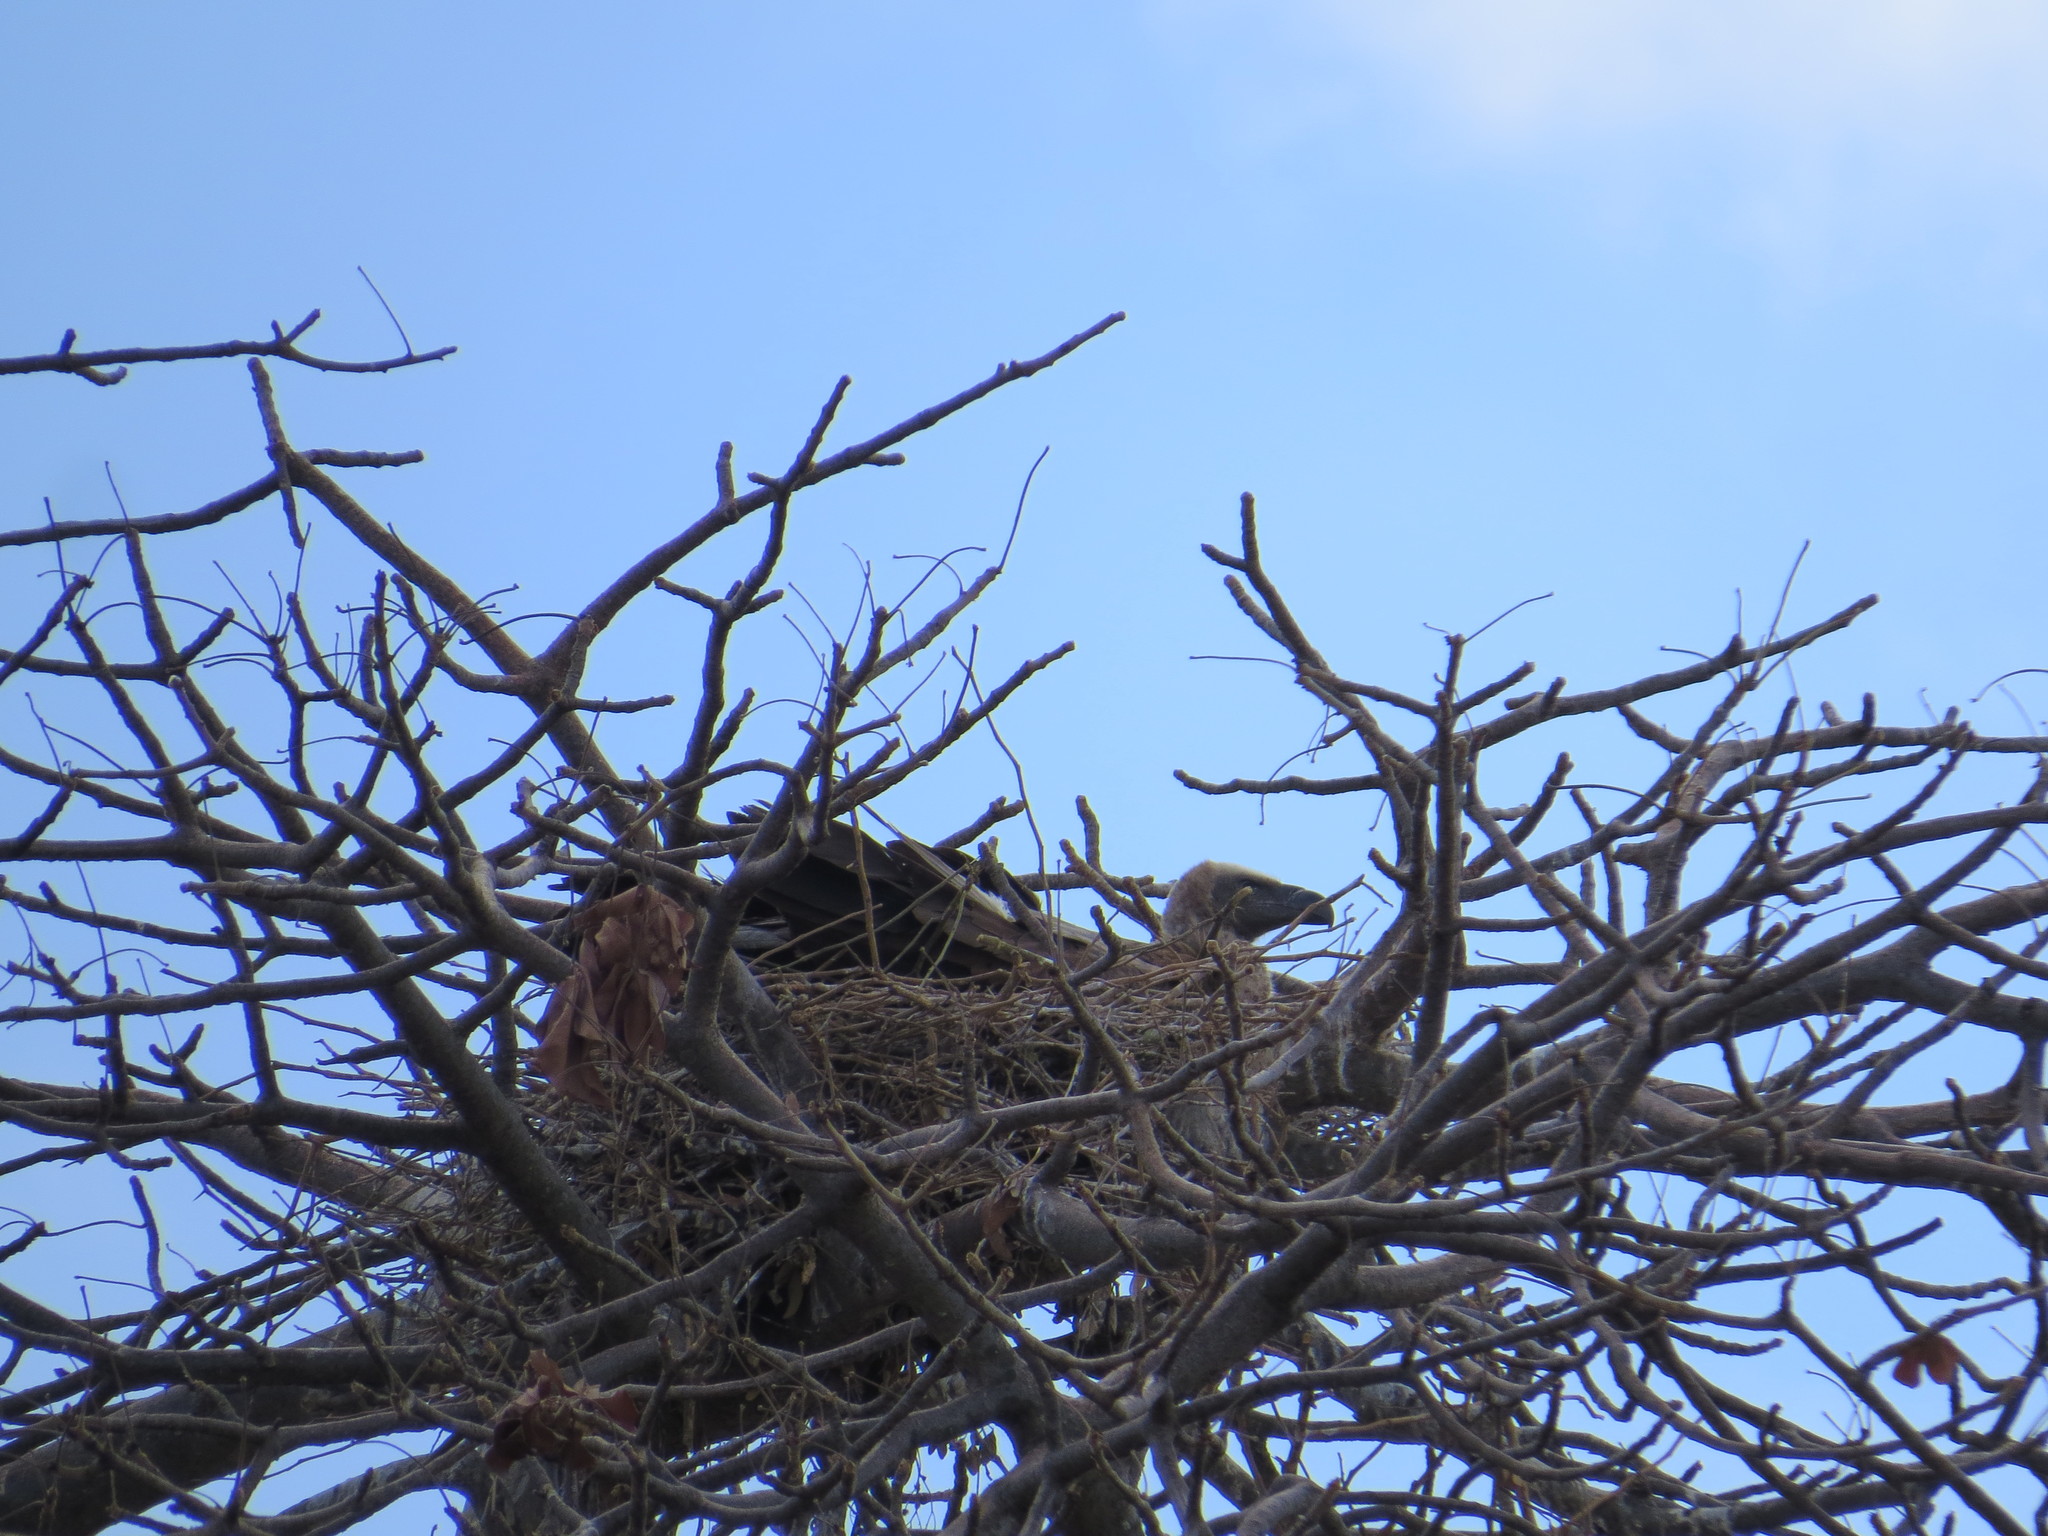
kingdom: Animalia
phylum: Chordata
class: Aves
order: Accipitriformes
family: Accipitridae
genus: Gyps
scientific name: Gyps africanus
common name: White-backed vulture
